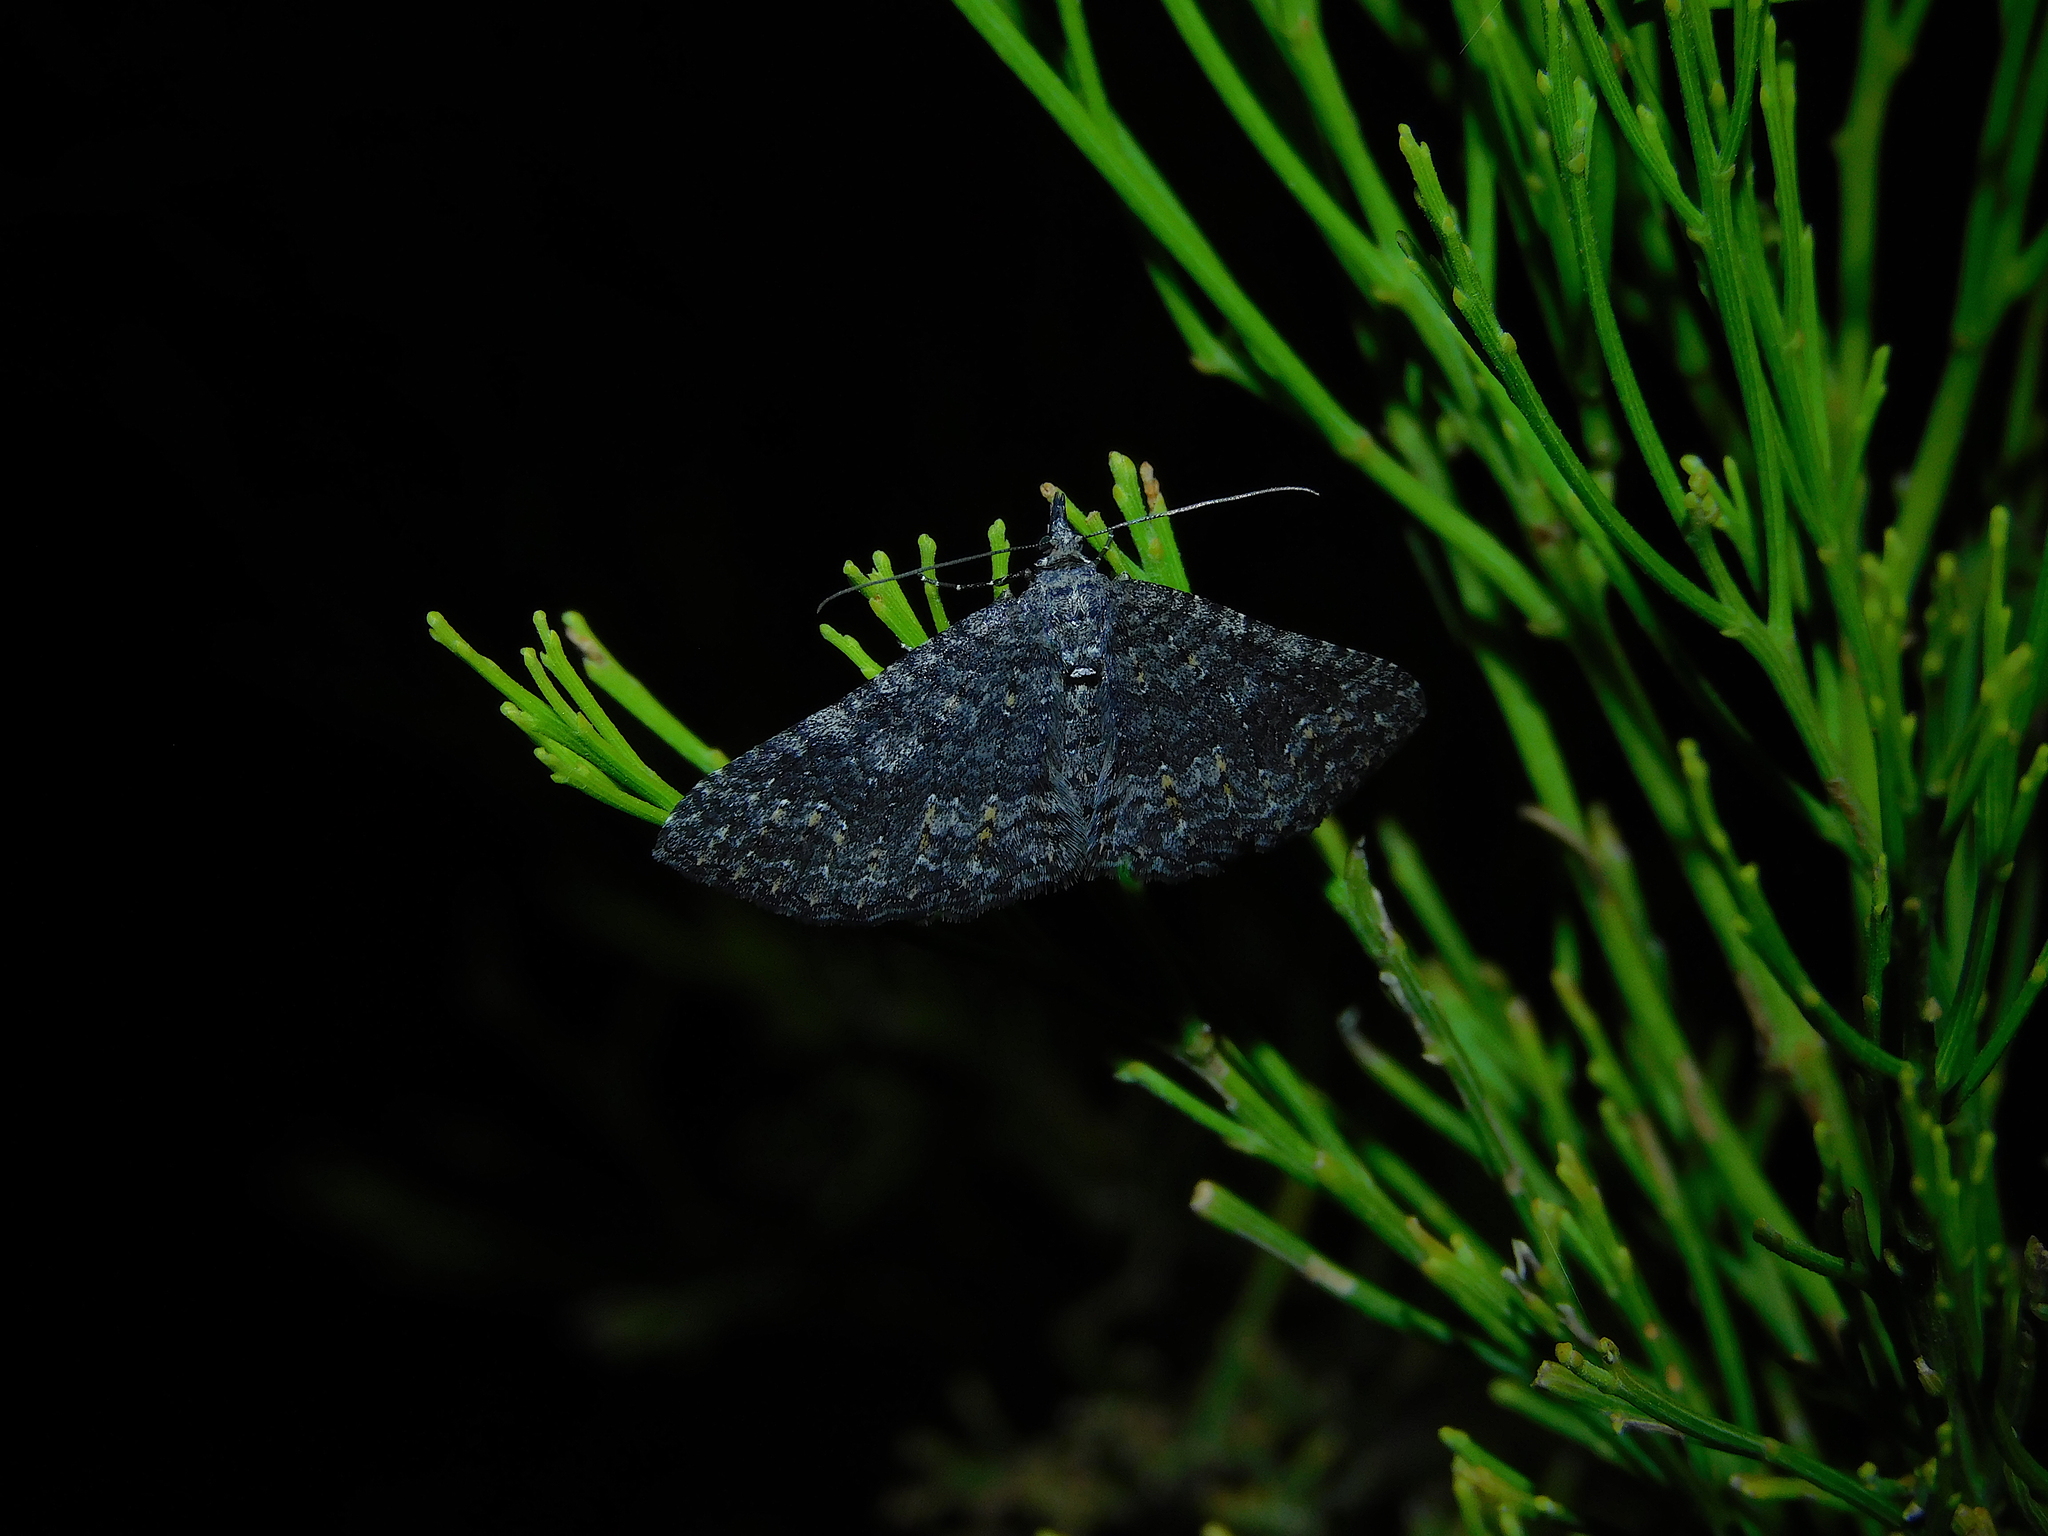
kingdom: Animalia
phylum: Arthropoda
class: Insecta
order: Lepidoptera
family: Geometridae
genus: Xanthorhoe
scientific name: Xanthorhoe xerodes
